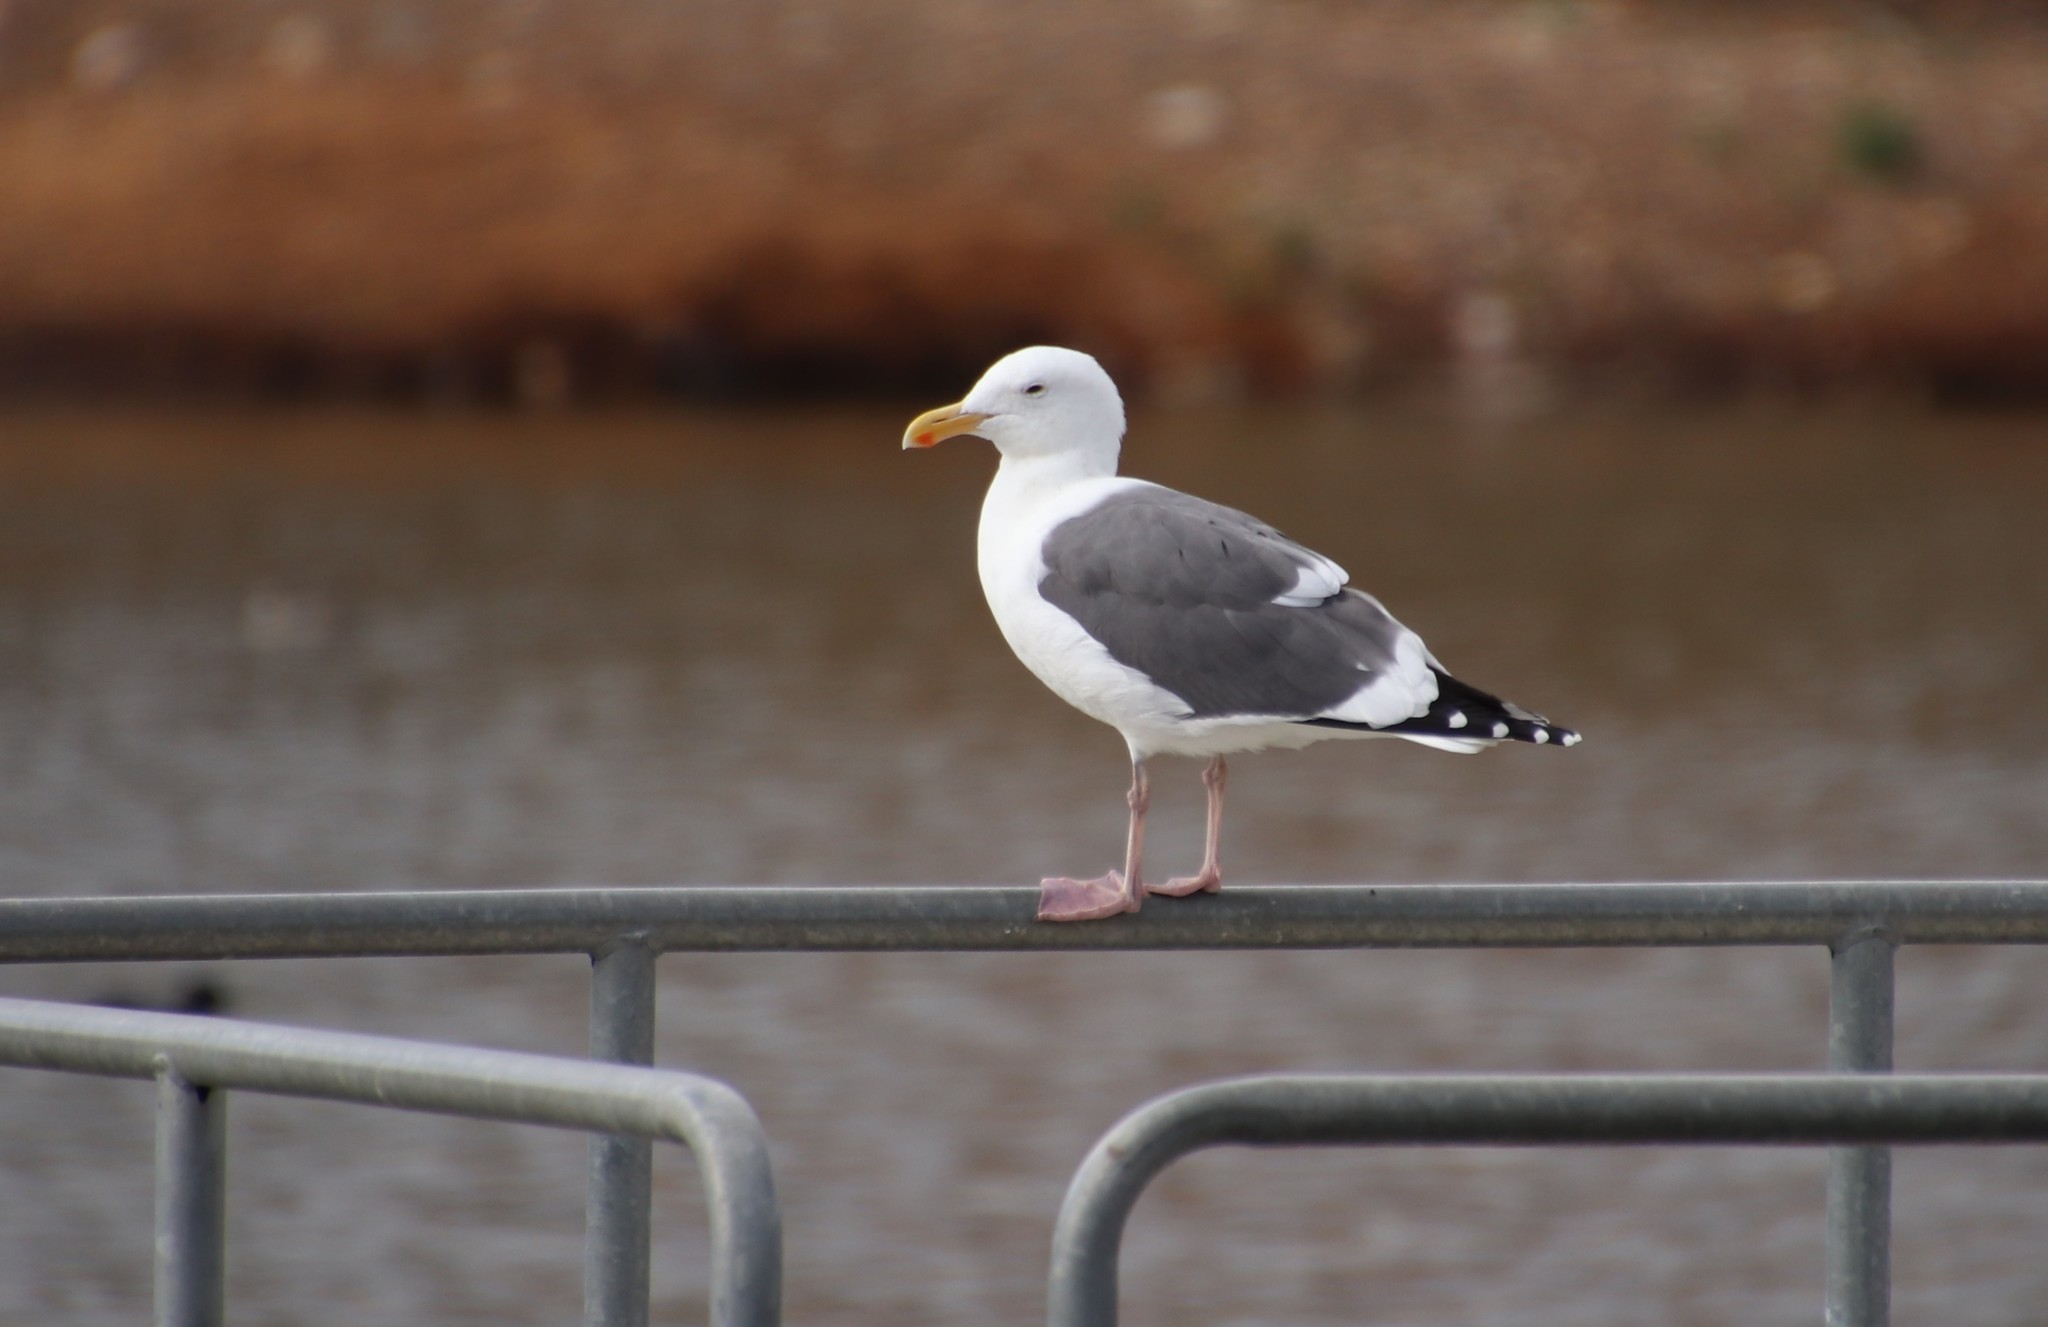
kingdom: Animalia
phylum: Chordata
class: Aves
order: Charadriiformes
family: Laridae
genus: Larus
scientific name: Larus occidentalis
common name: Western gull
